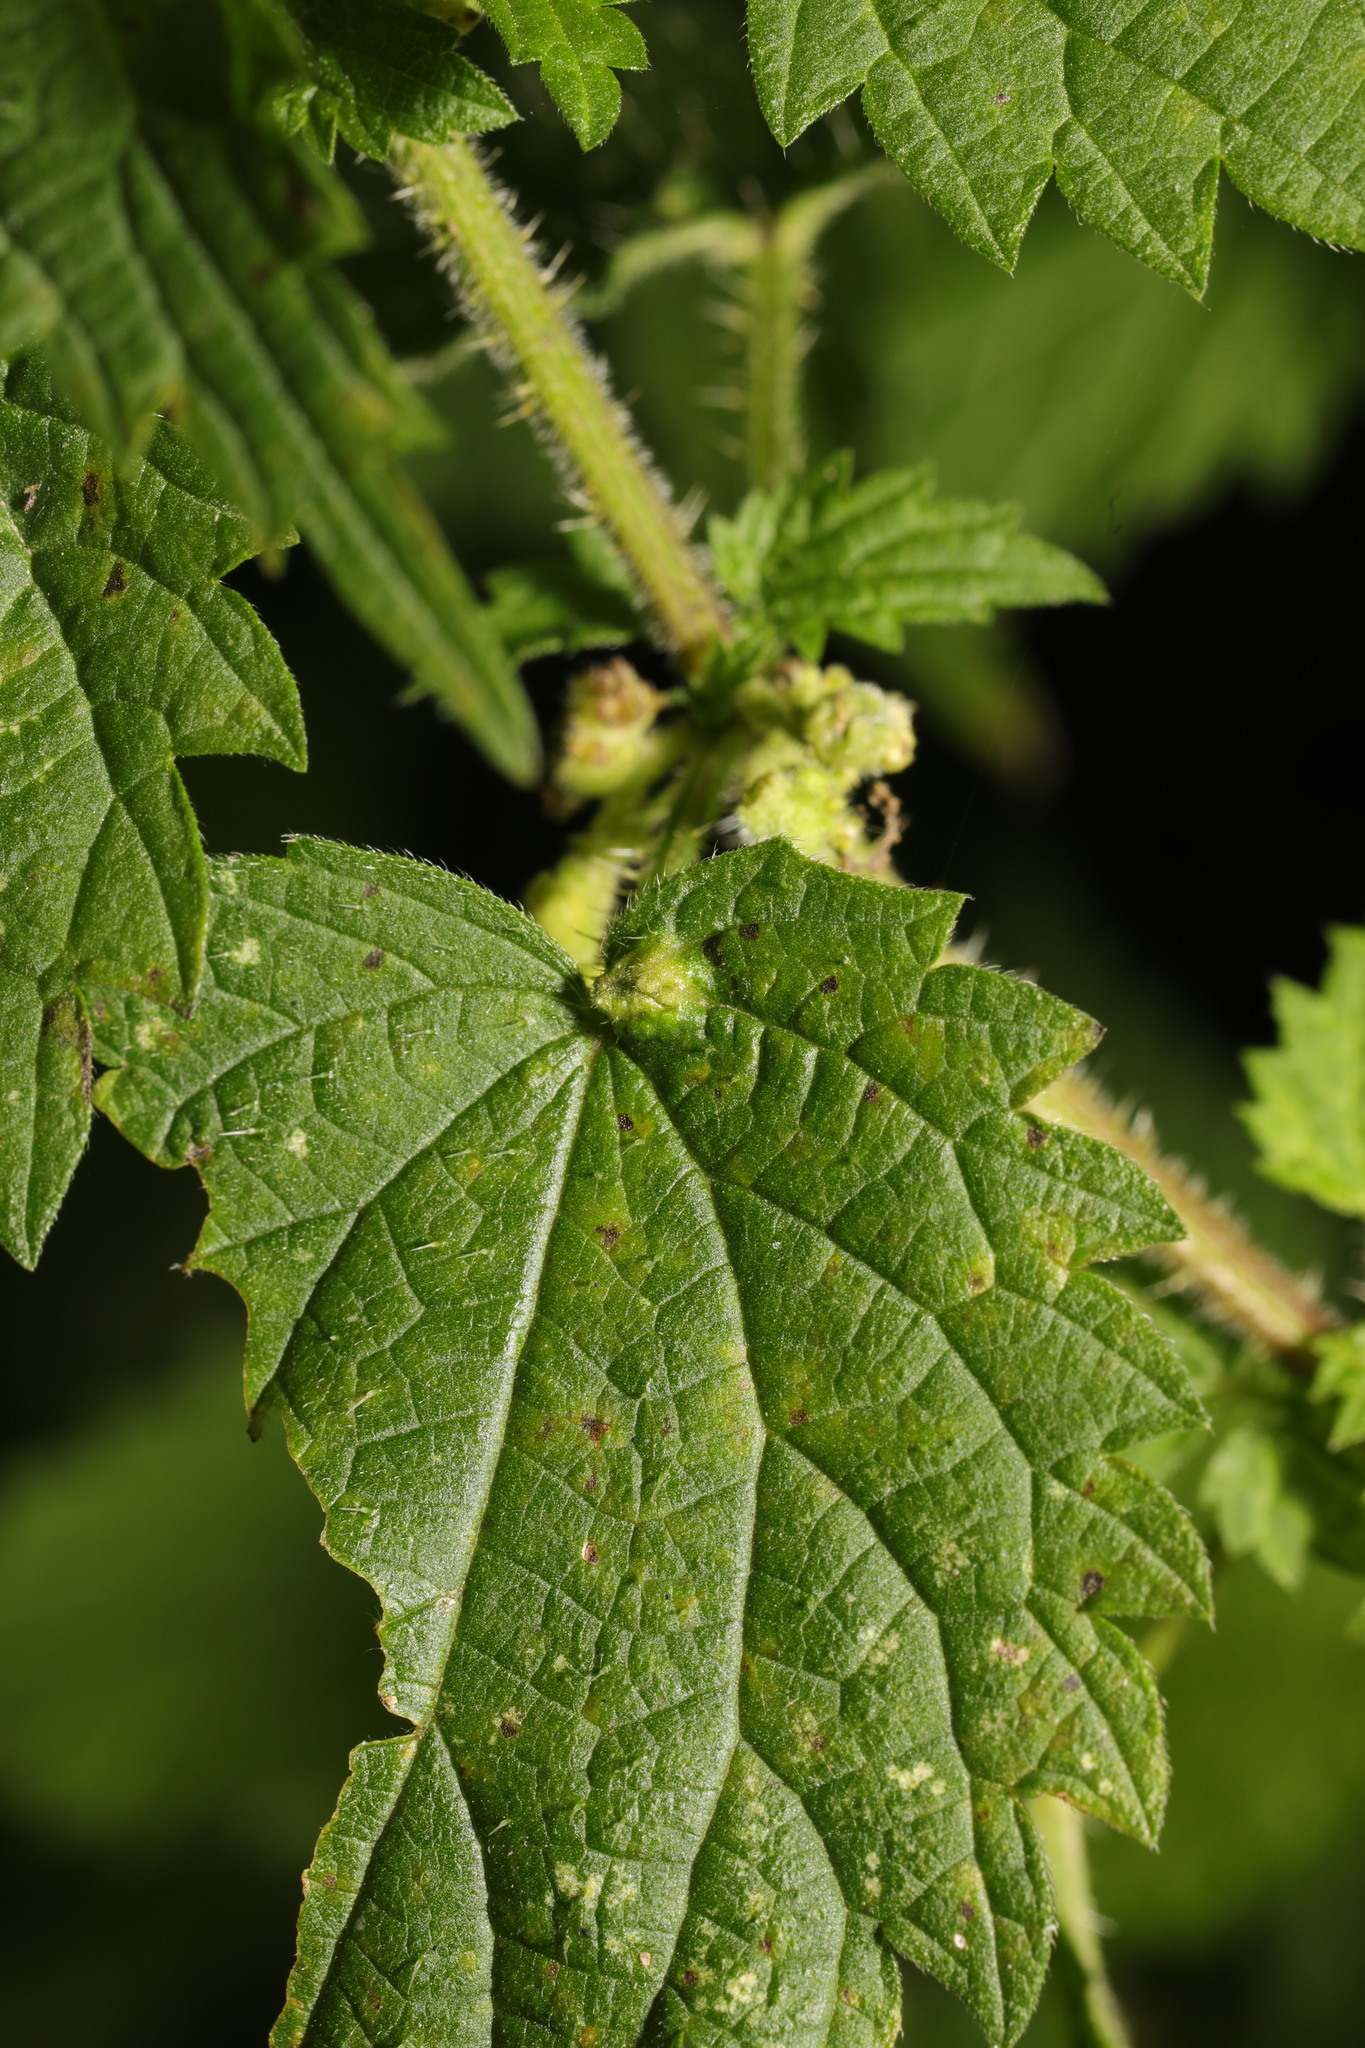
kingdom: Animalia
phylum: Arthropoda
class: Insecta
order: Diptera
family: Cecidomyiidae
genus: Dasineura
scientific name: Dasineura urticae
